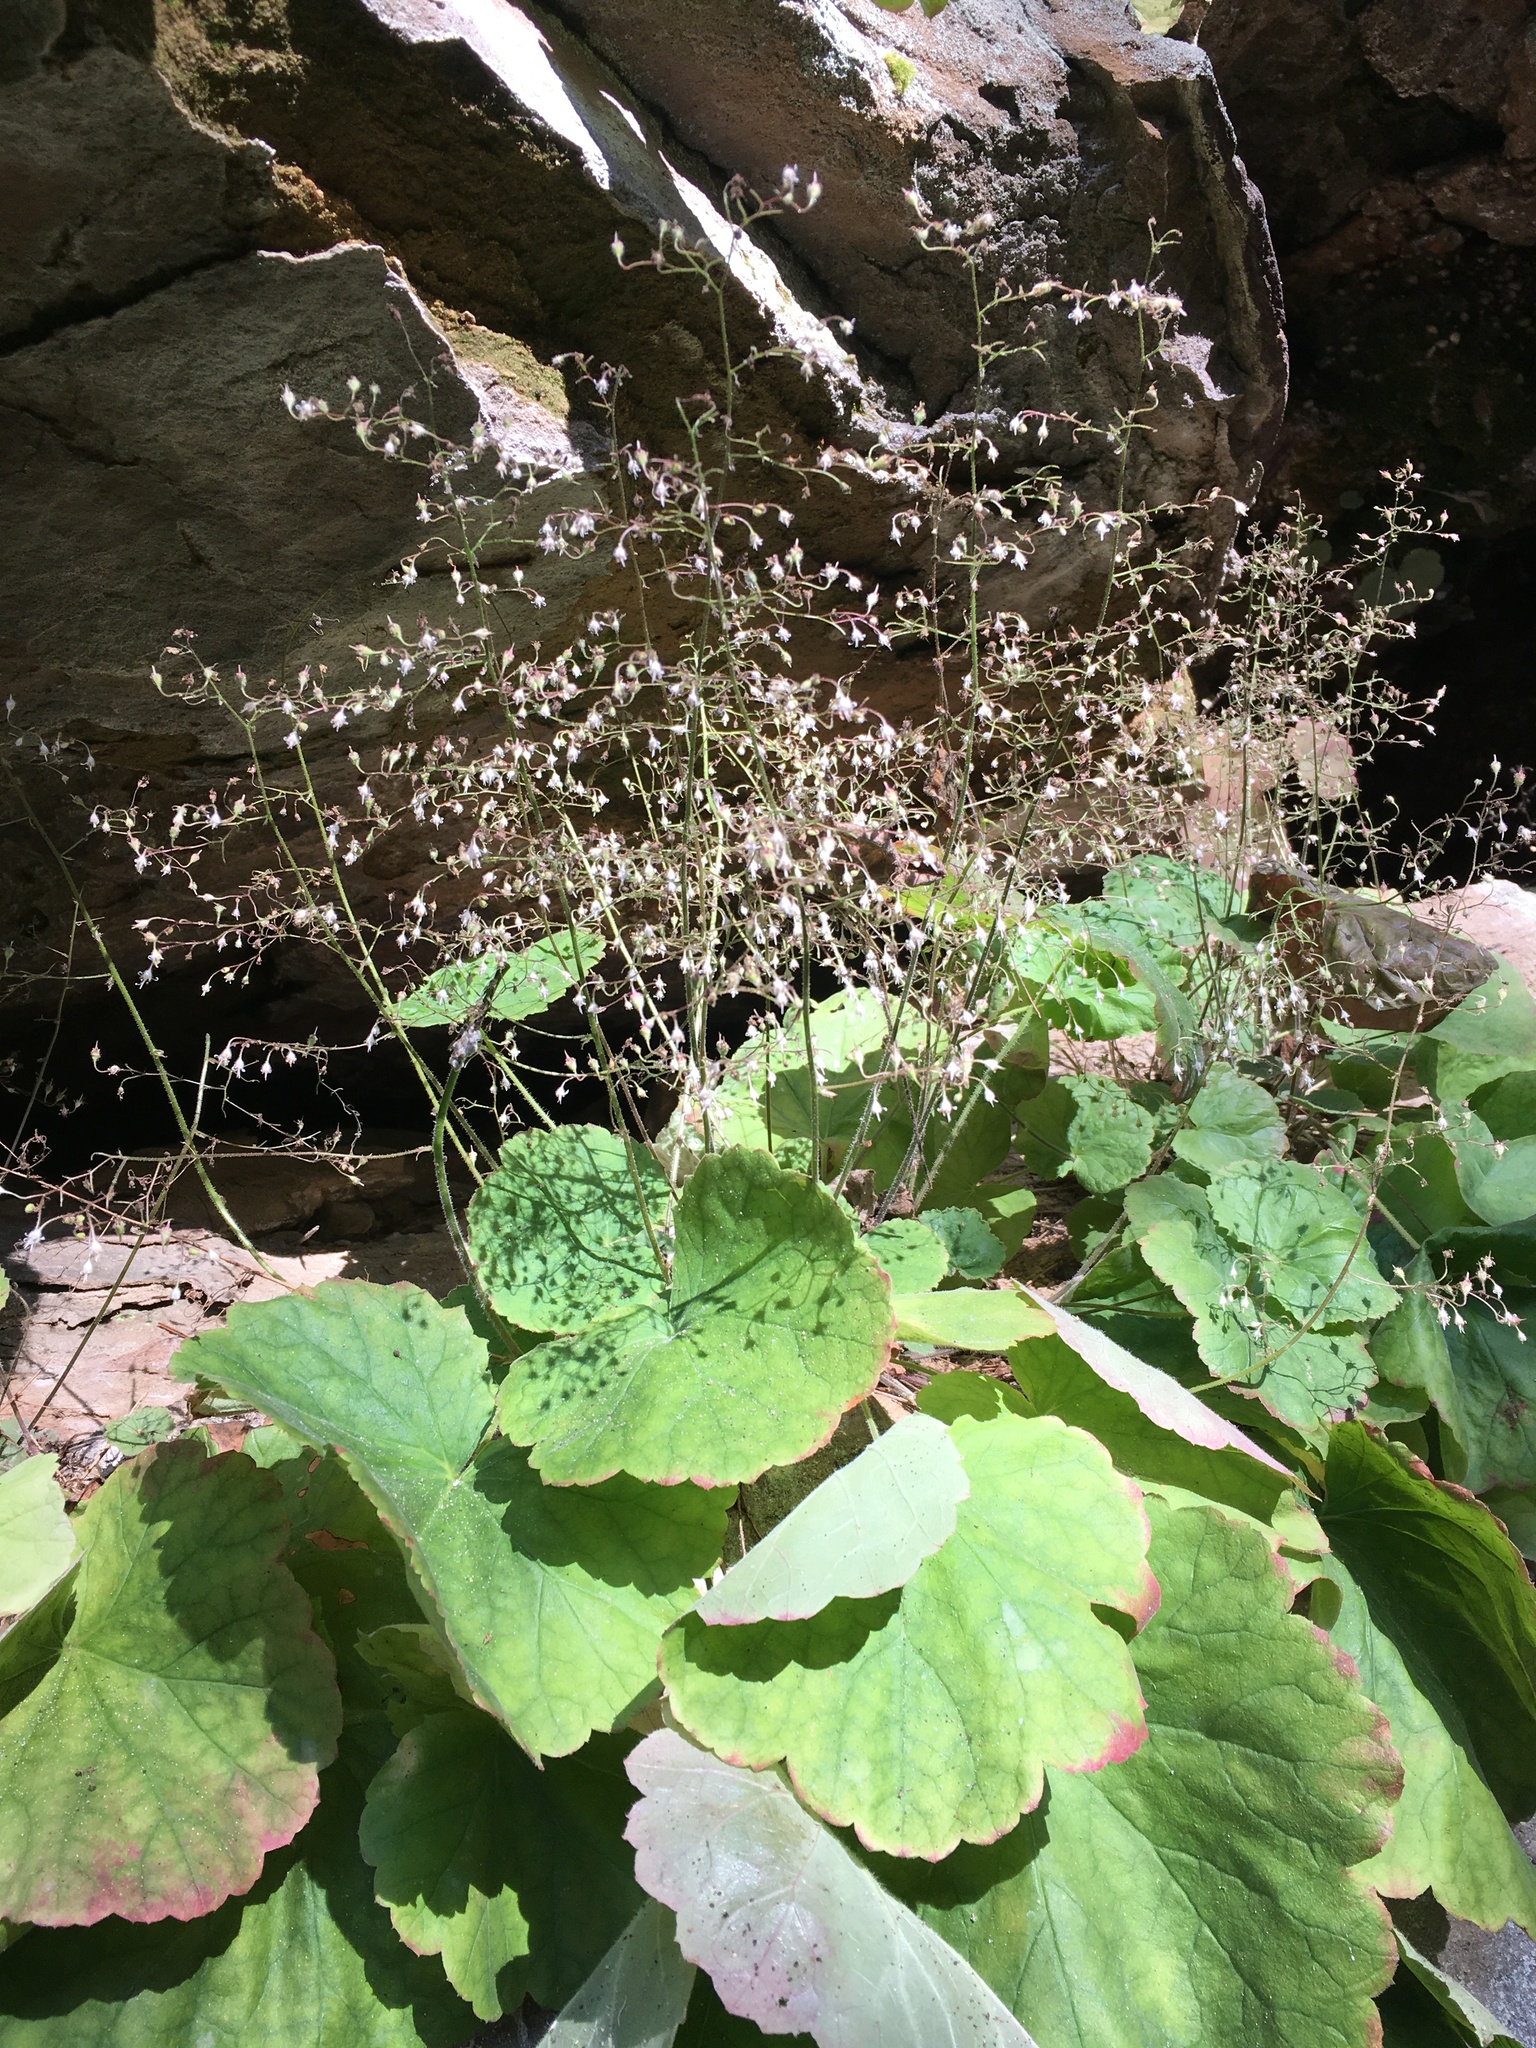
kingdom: Plantae
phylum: Tracheophyta
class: Magnoliopsida
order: Saxifragales
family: Saxifragaceae
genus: Heuchera
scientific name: Heuchera parviflora
